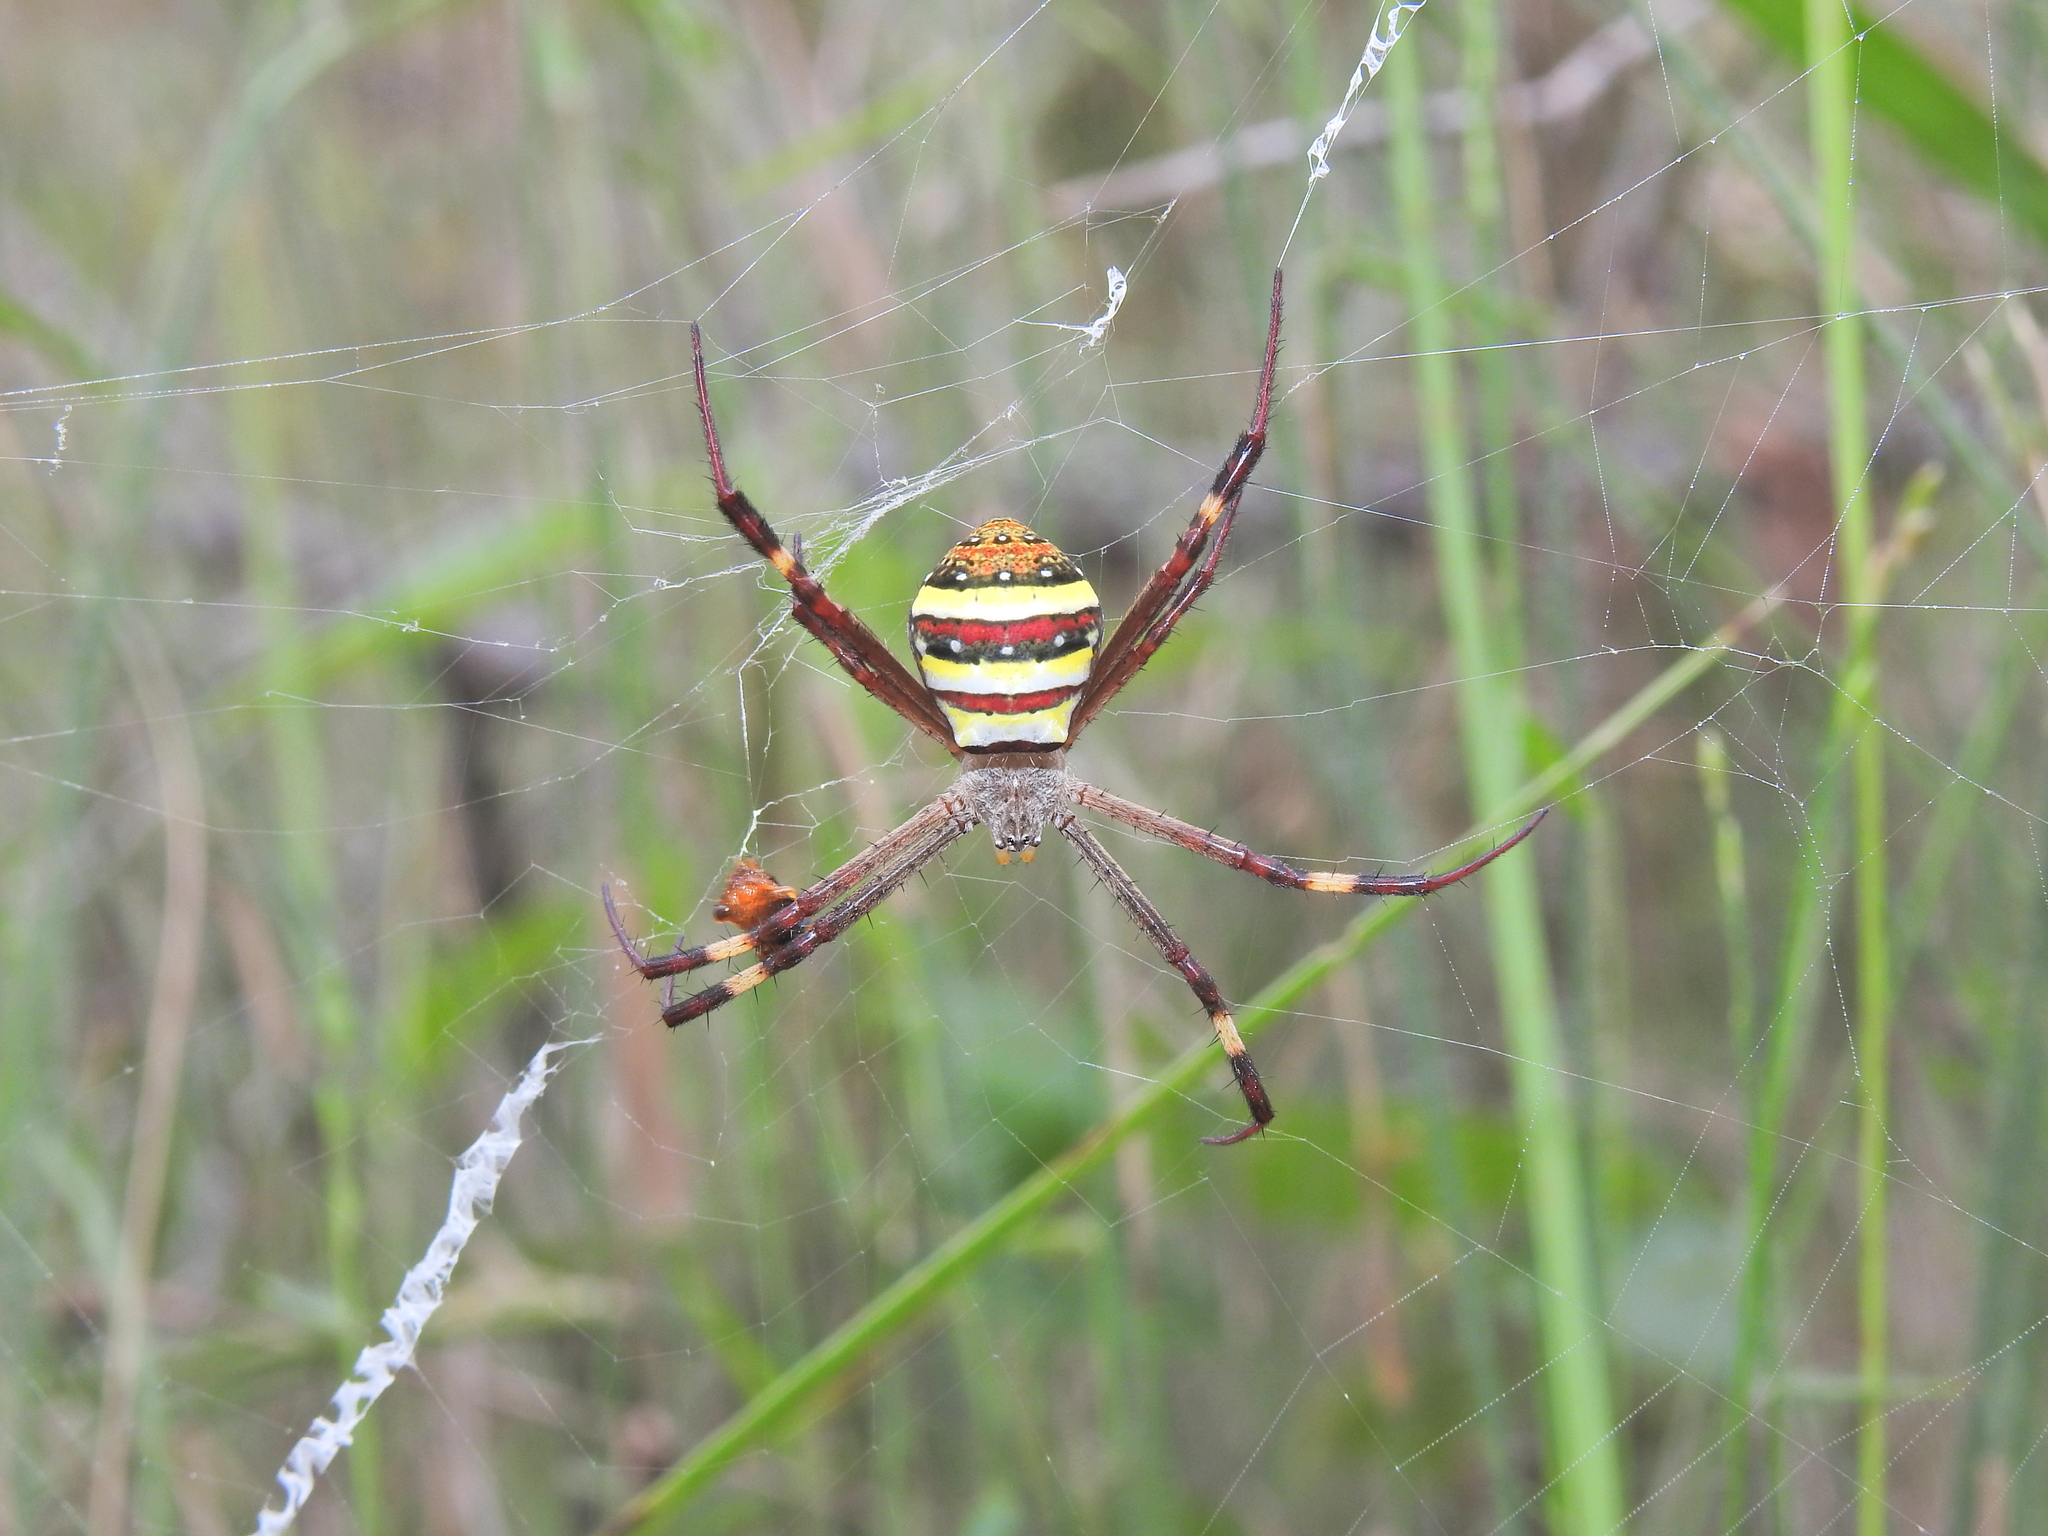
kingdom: Animalia
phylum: Arthropoda
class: Arachnida
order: Araneae
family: Araneidae
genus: Argiope
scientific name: Argiope keyserlingi
